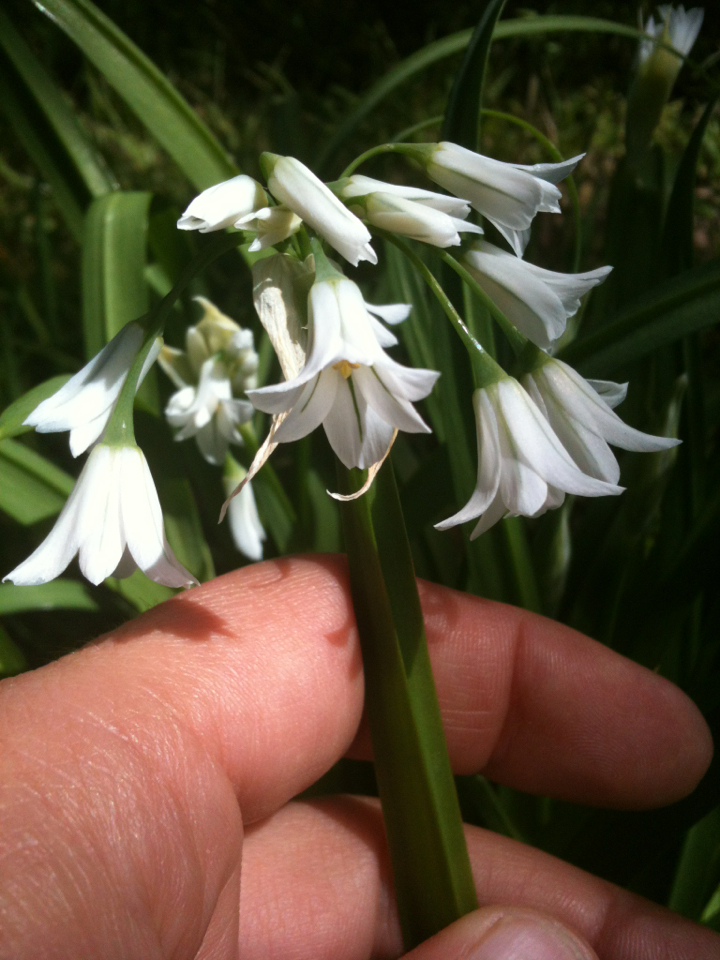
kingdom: Plantae
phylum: Tracheophyta
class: Liliopsida
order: Asparagales
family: Amaryllidaceae
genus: Allium
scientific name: Allium triquetrum
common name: Three-cornered garlic
